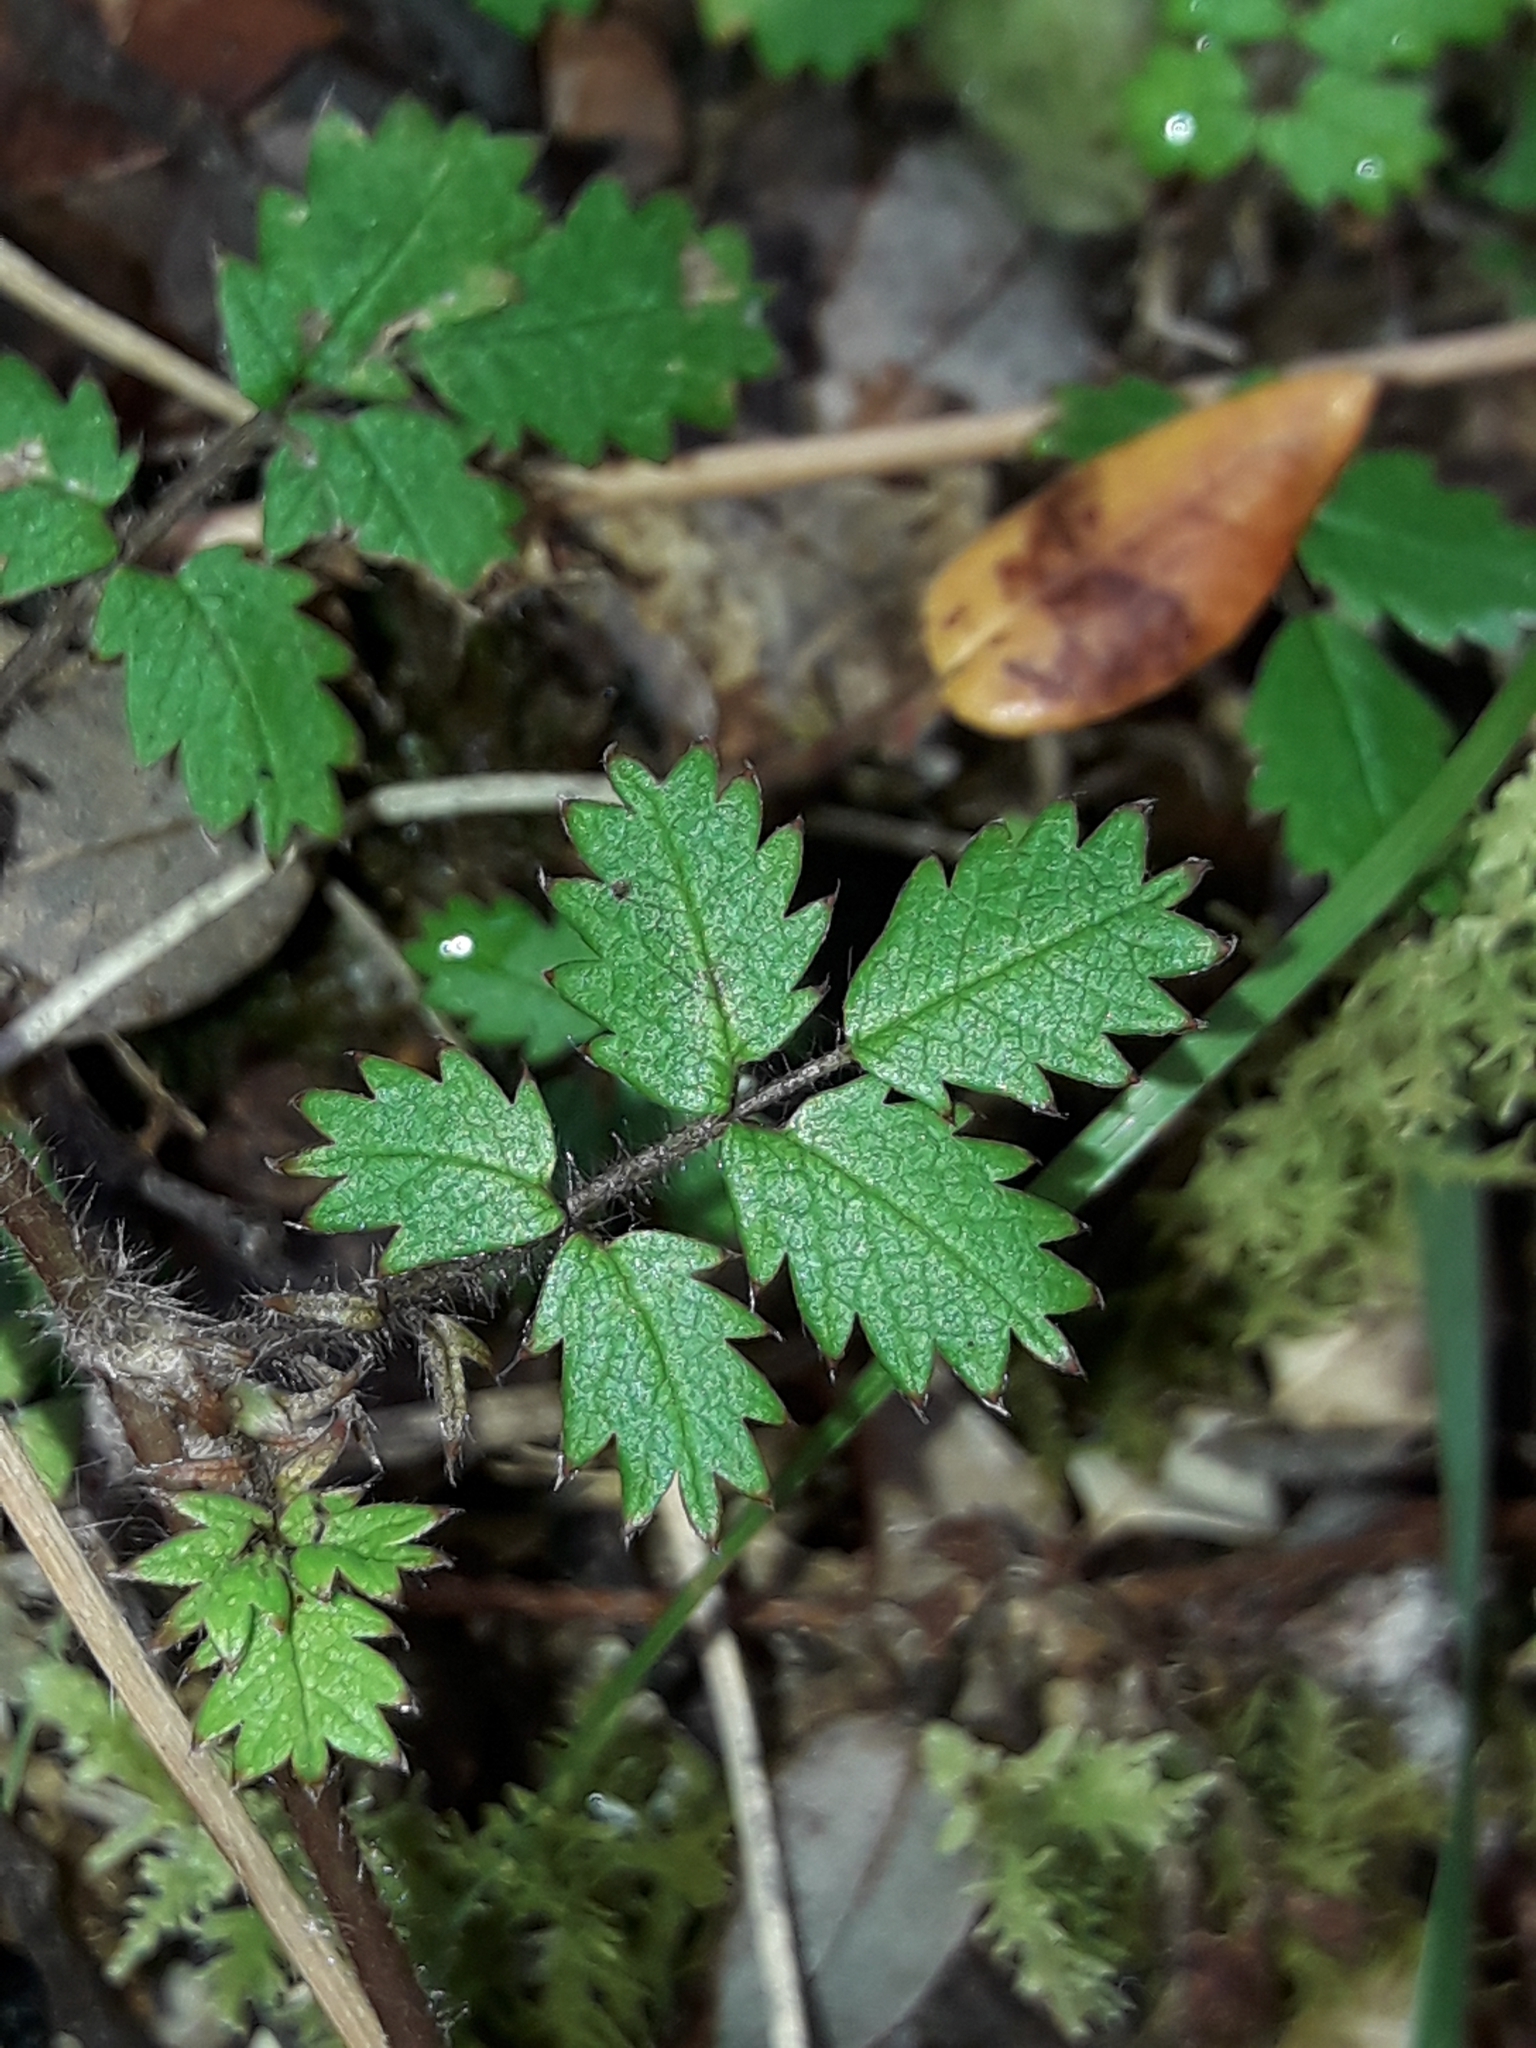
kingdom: Plantae
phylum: Tracheophyta
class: Magnoliopsida
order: Rosales
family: Rosaceae
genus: Acaena
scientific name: Acaena juvenca
